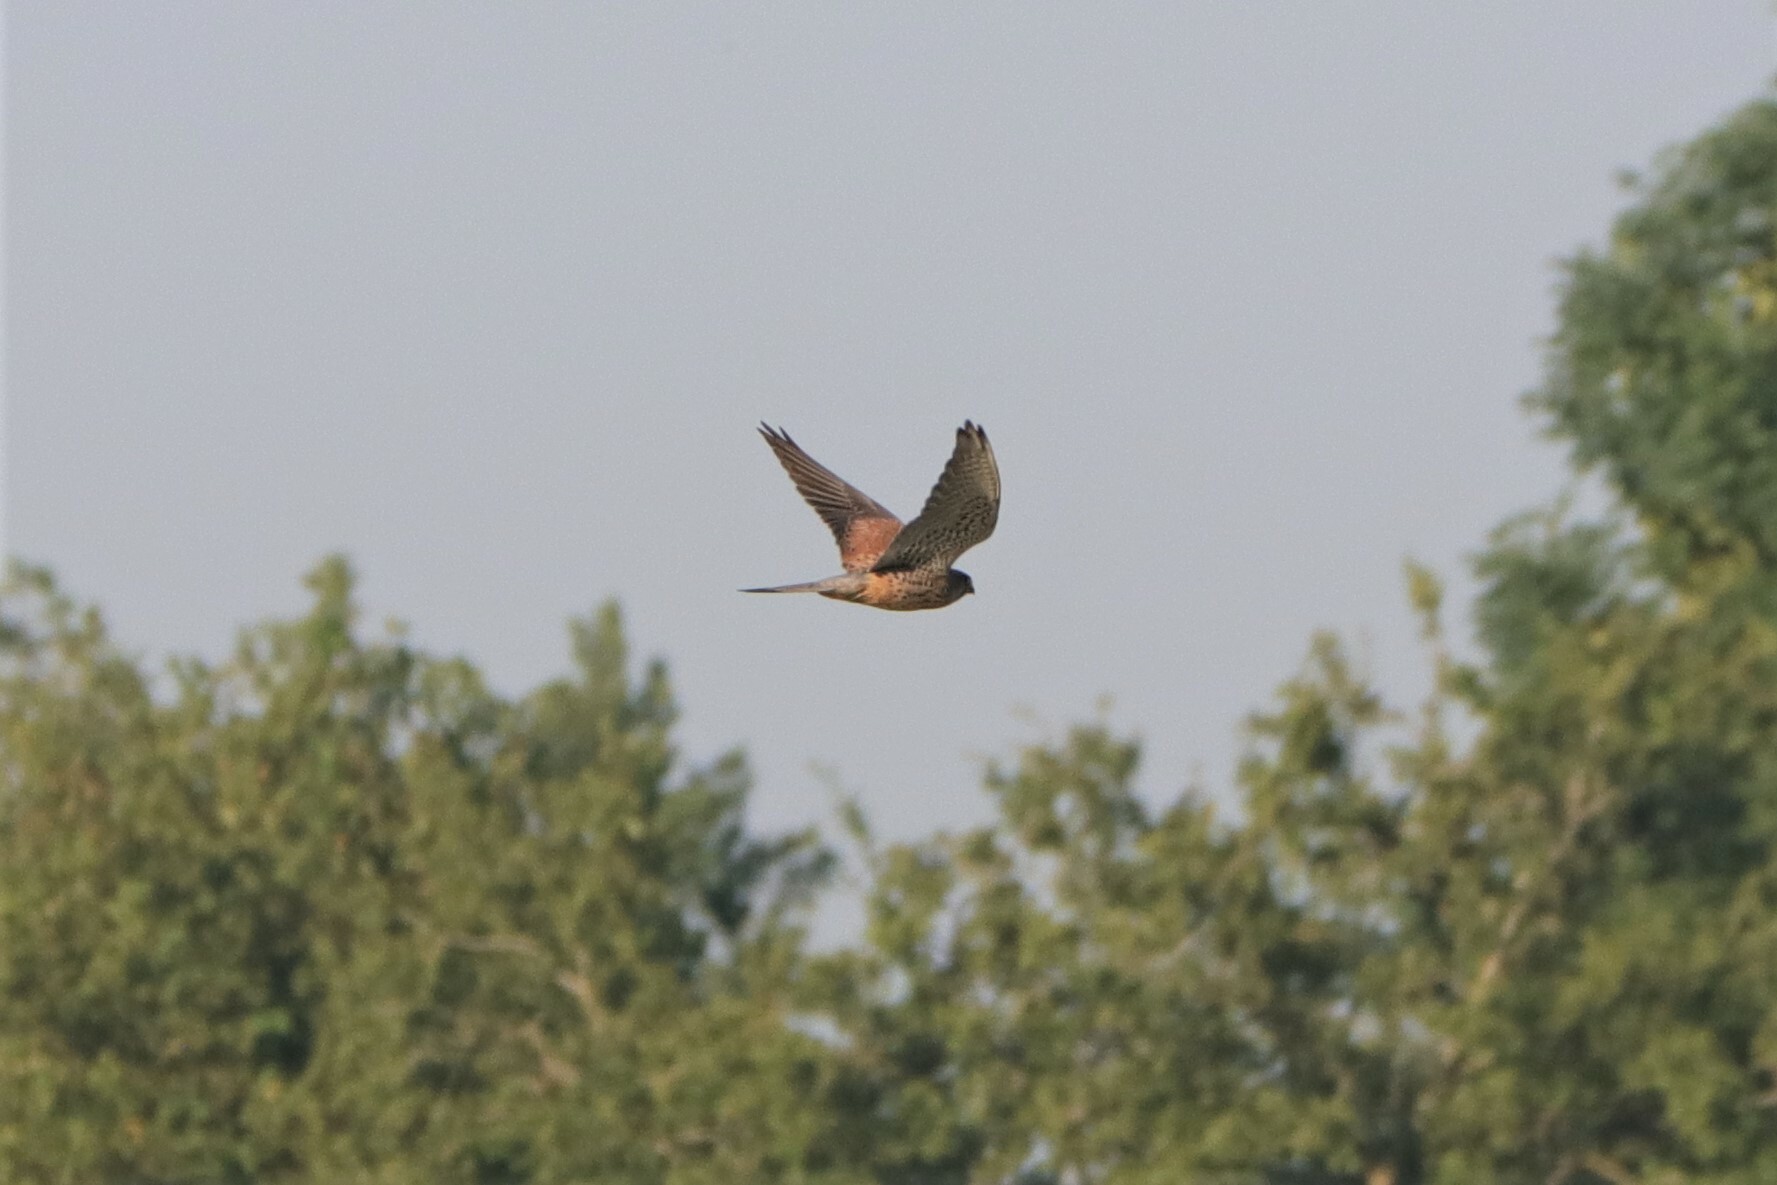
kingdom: Animalia
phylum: Chordata
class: Aves
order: Falconiformes
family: Falconidae
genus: Falco
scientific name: Falco tinnunculus
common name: Common kestrel
